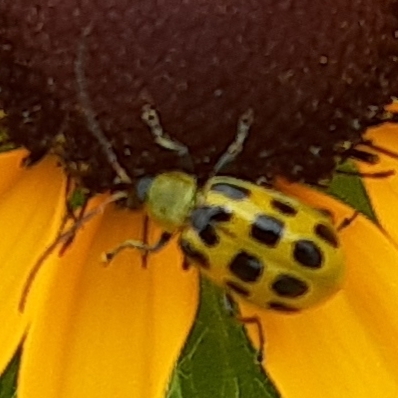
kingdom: Animalia
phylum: Arthropoda
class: Insecta
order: Coleoptera
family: Chrysomelidae
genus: Diabrotica
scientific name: Diabrotica undecimpunctata
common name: Spotted cucumber beetle
